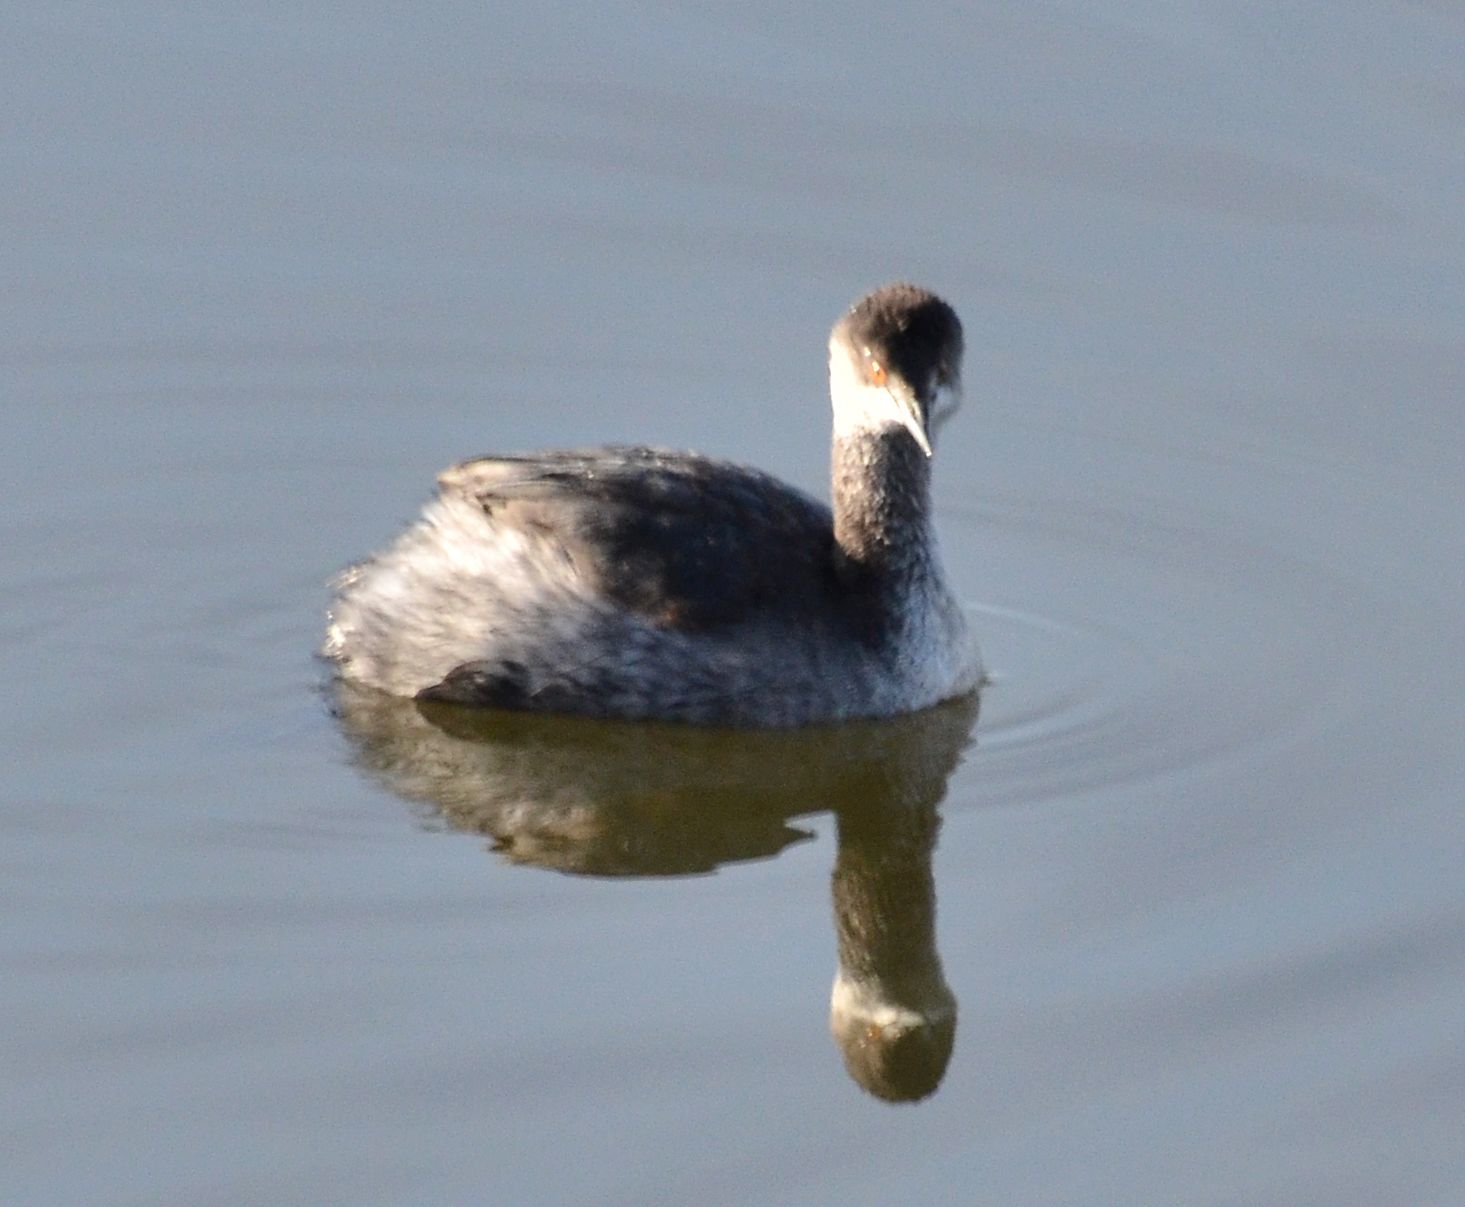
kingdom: Animalia
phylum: Chordata
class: Aves
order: Podicipediformes
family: Podicipedidae
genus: Podiceps
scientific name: Podiceps nigricollis
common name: Black-necked grebe
